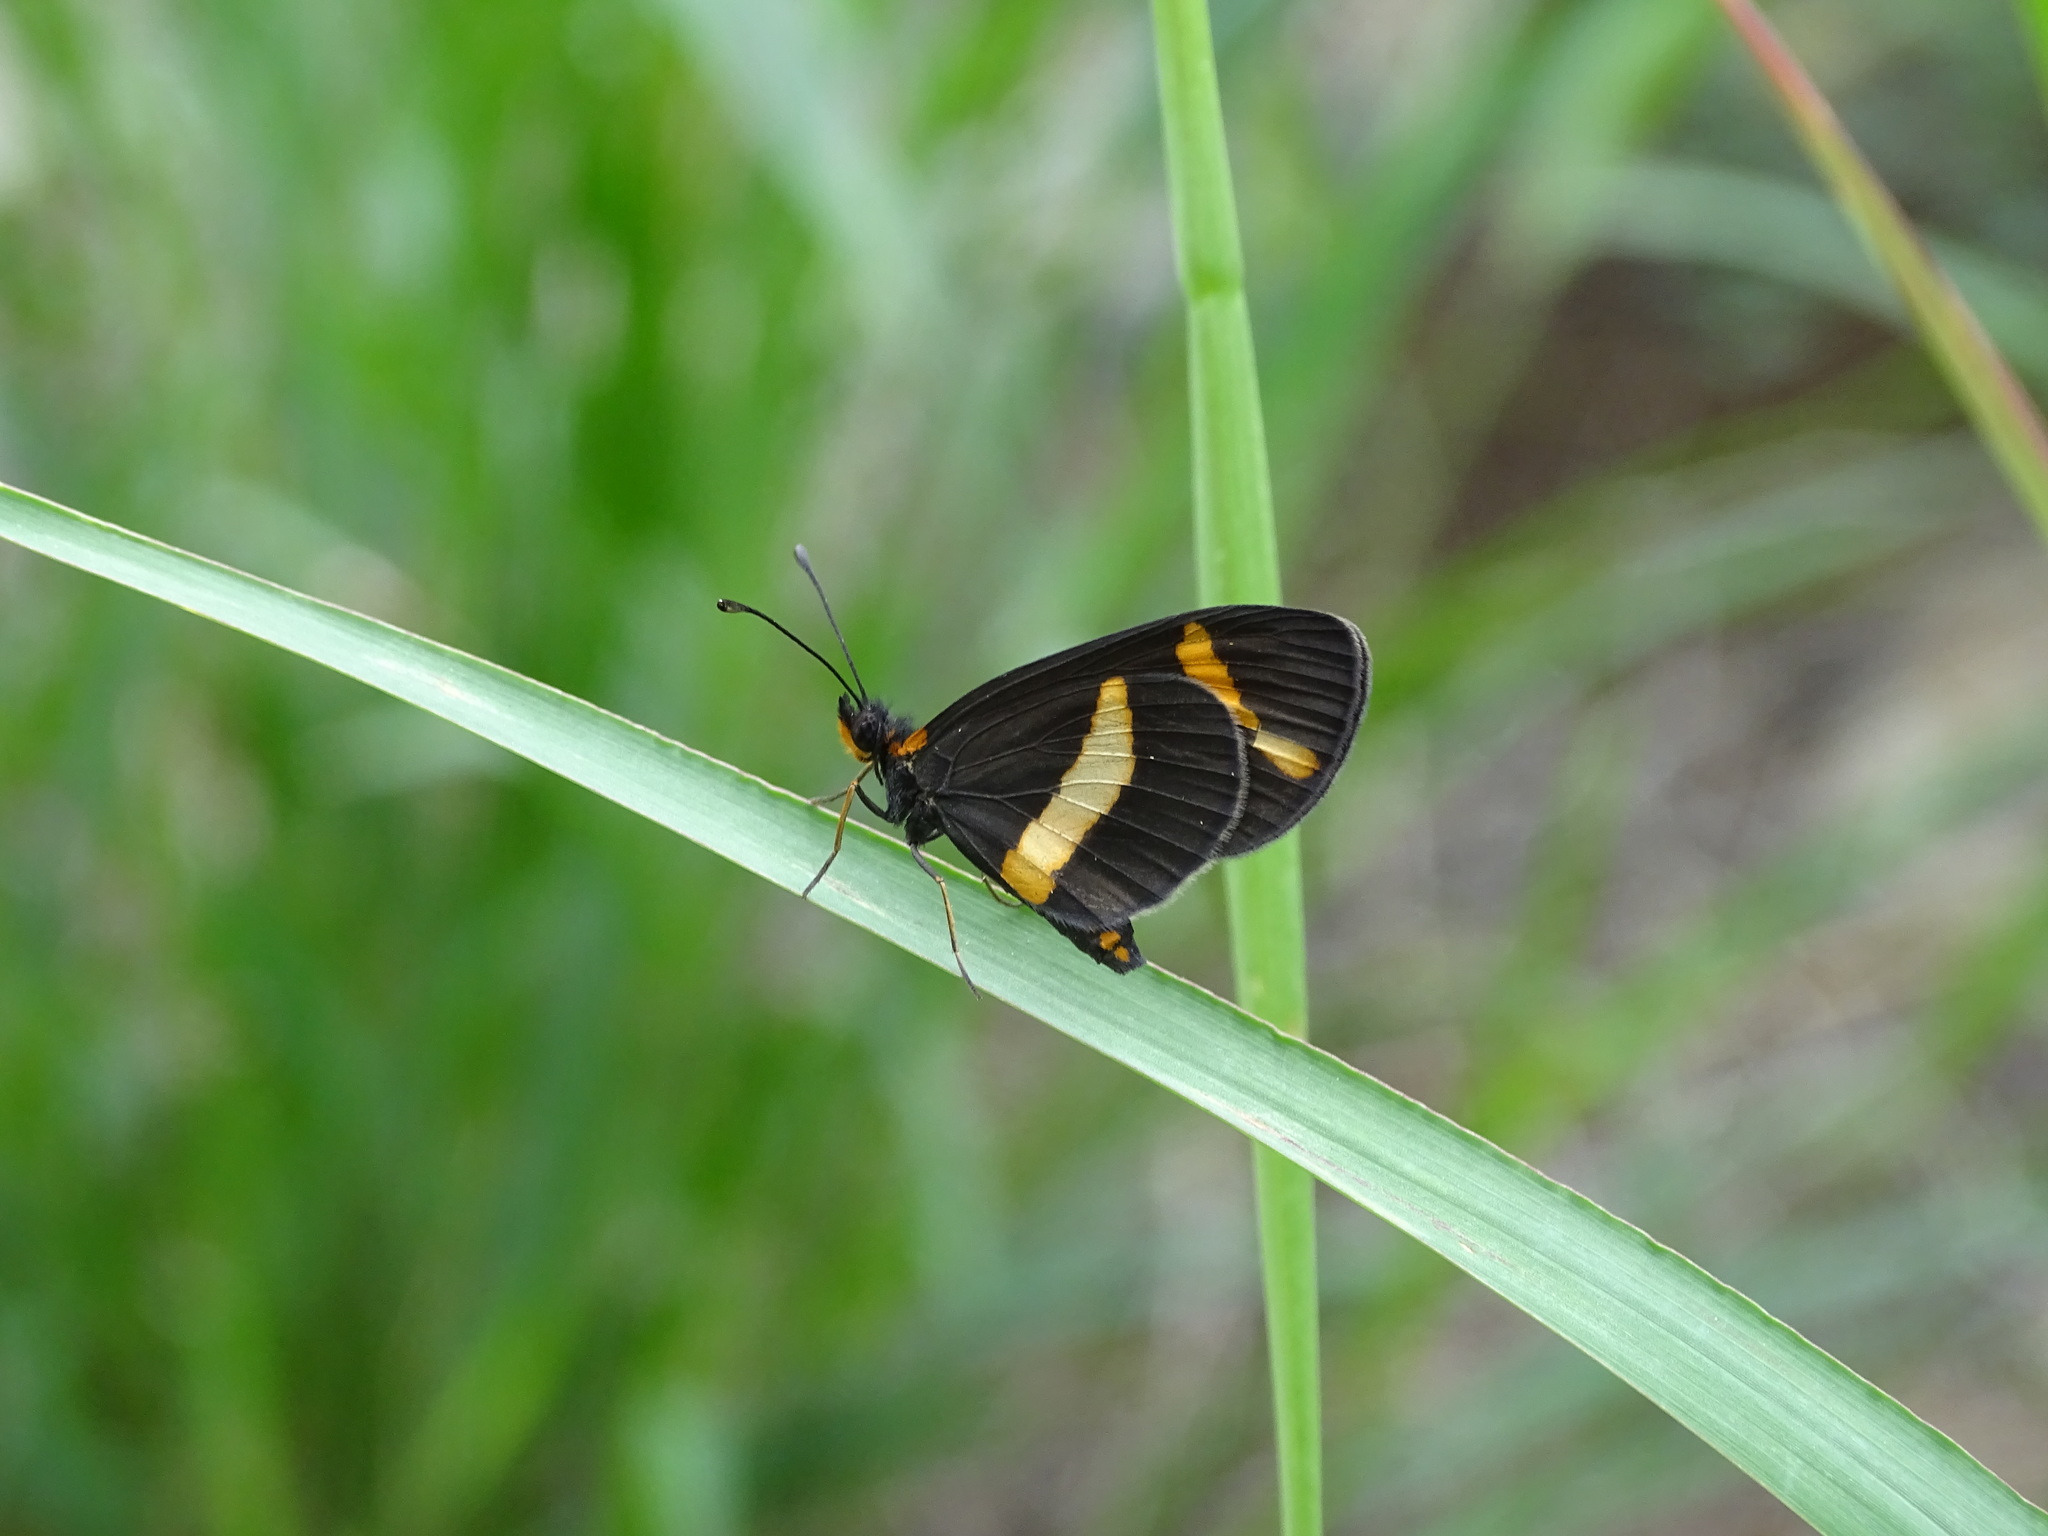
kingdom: Animalia
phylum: Arthropoda
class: Insecta
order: Lepidoptera
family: Nymphalidae
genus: Microtia
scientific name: Microtia elva
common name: Elf
